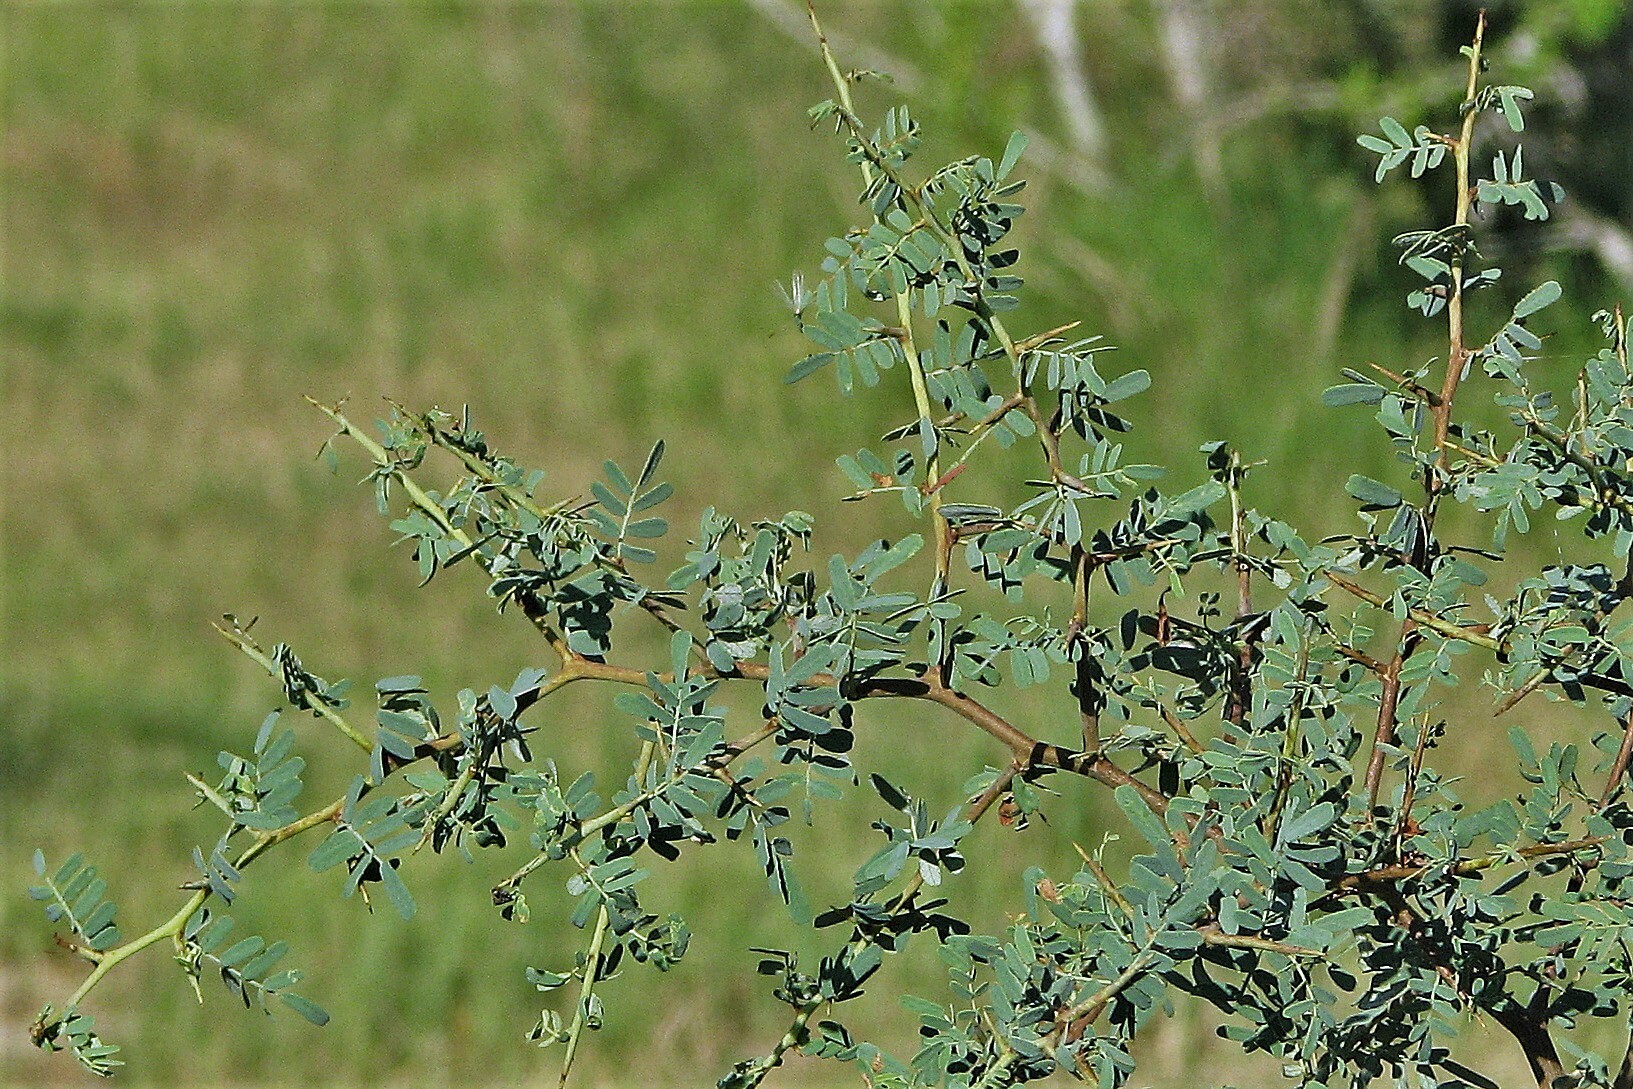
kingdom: Plantae
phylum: Tracheophyta
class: Magnoliopsida
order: Fabales
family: Fabaceae
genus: Geoffroea
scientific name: Geoffroea decorticans
